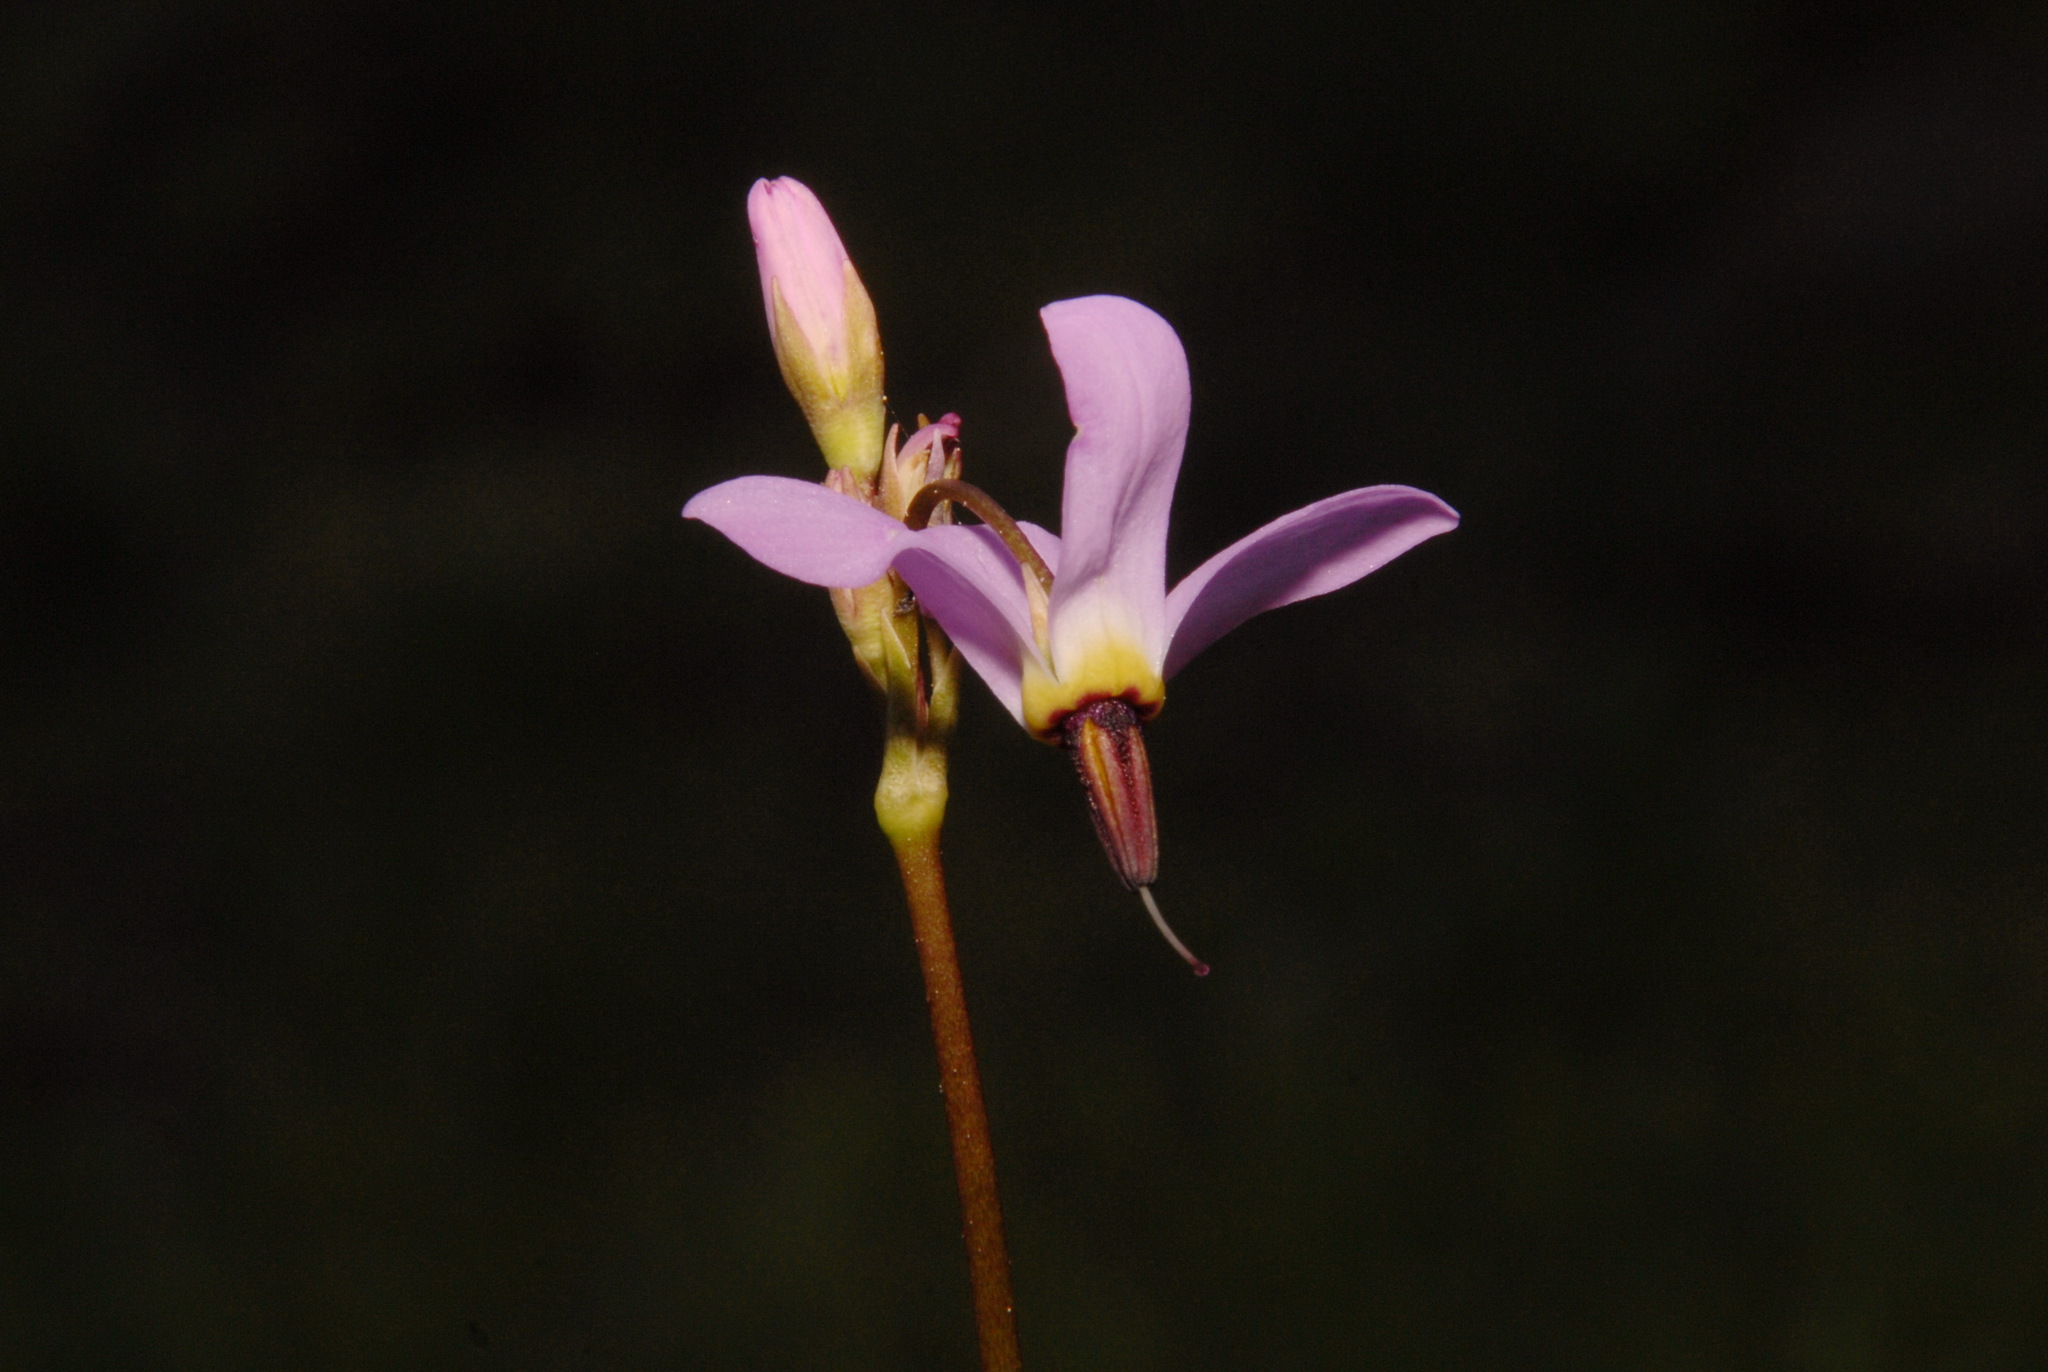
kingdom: Plantae
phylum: Tracheophyta
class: Magnoliopsida
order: Ericales
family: Primulaceae
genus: Dodecatheon
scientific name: Dodecatheon alpinum
